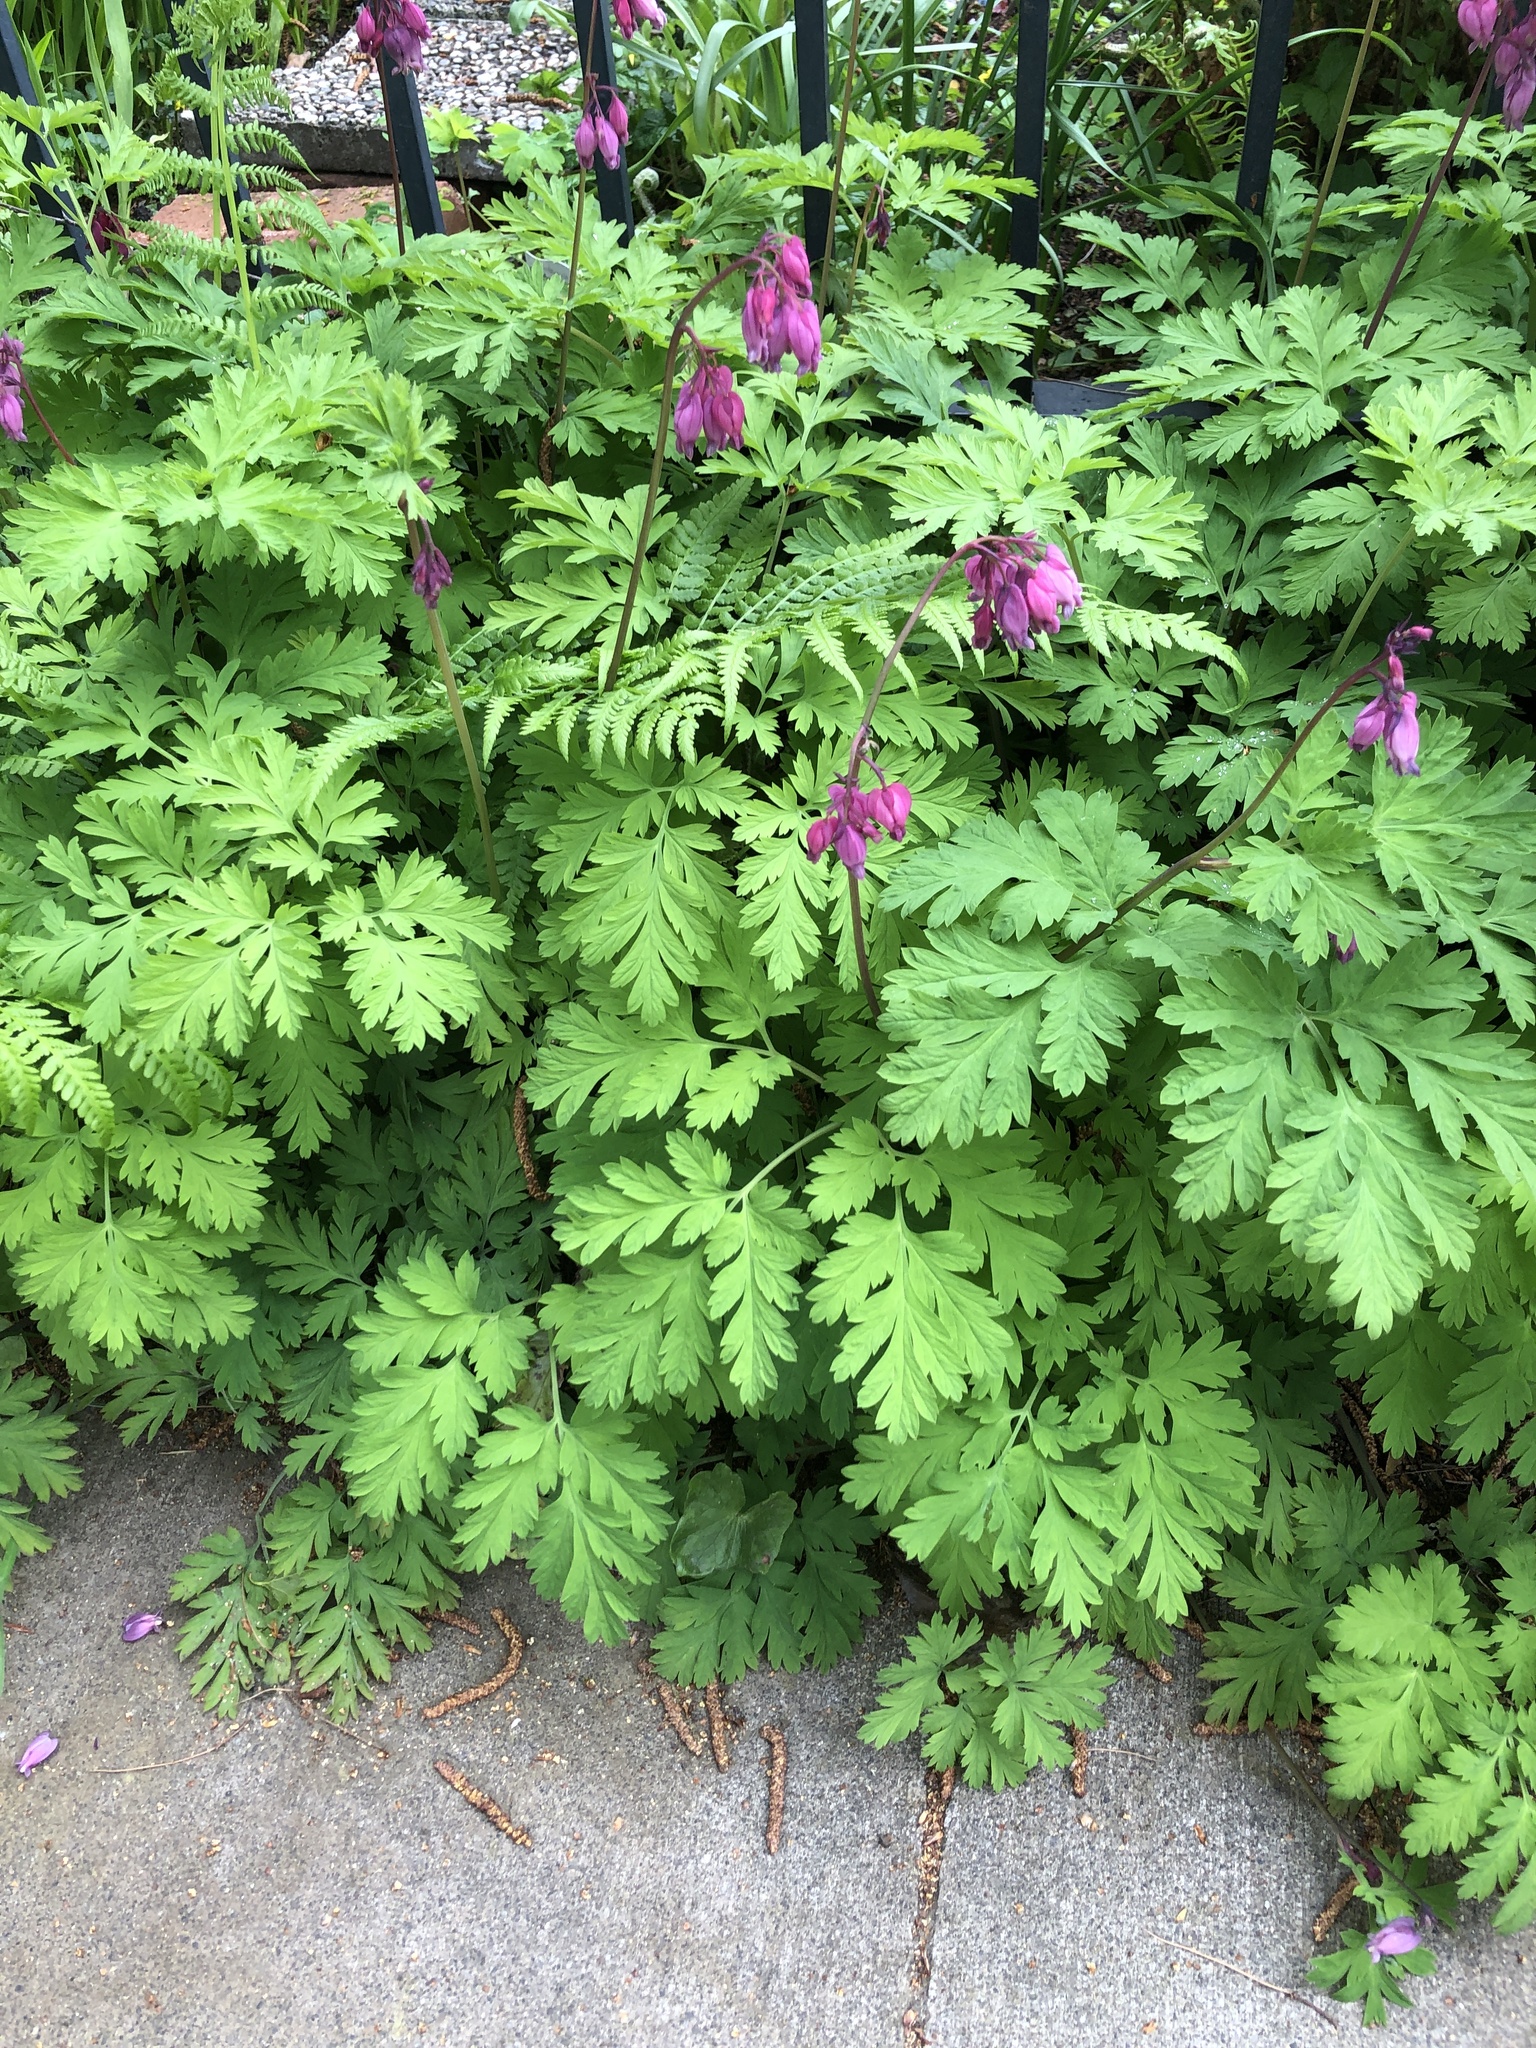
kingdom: Plantae
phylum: Tracheophyta
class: Magnoliopsida
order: Ranunculales
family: Papaveraceae
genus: Dicentra
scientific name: Dicentra formosa
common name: Bleeding-heart
